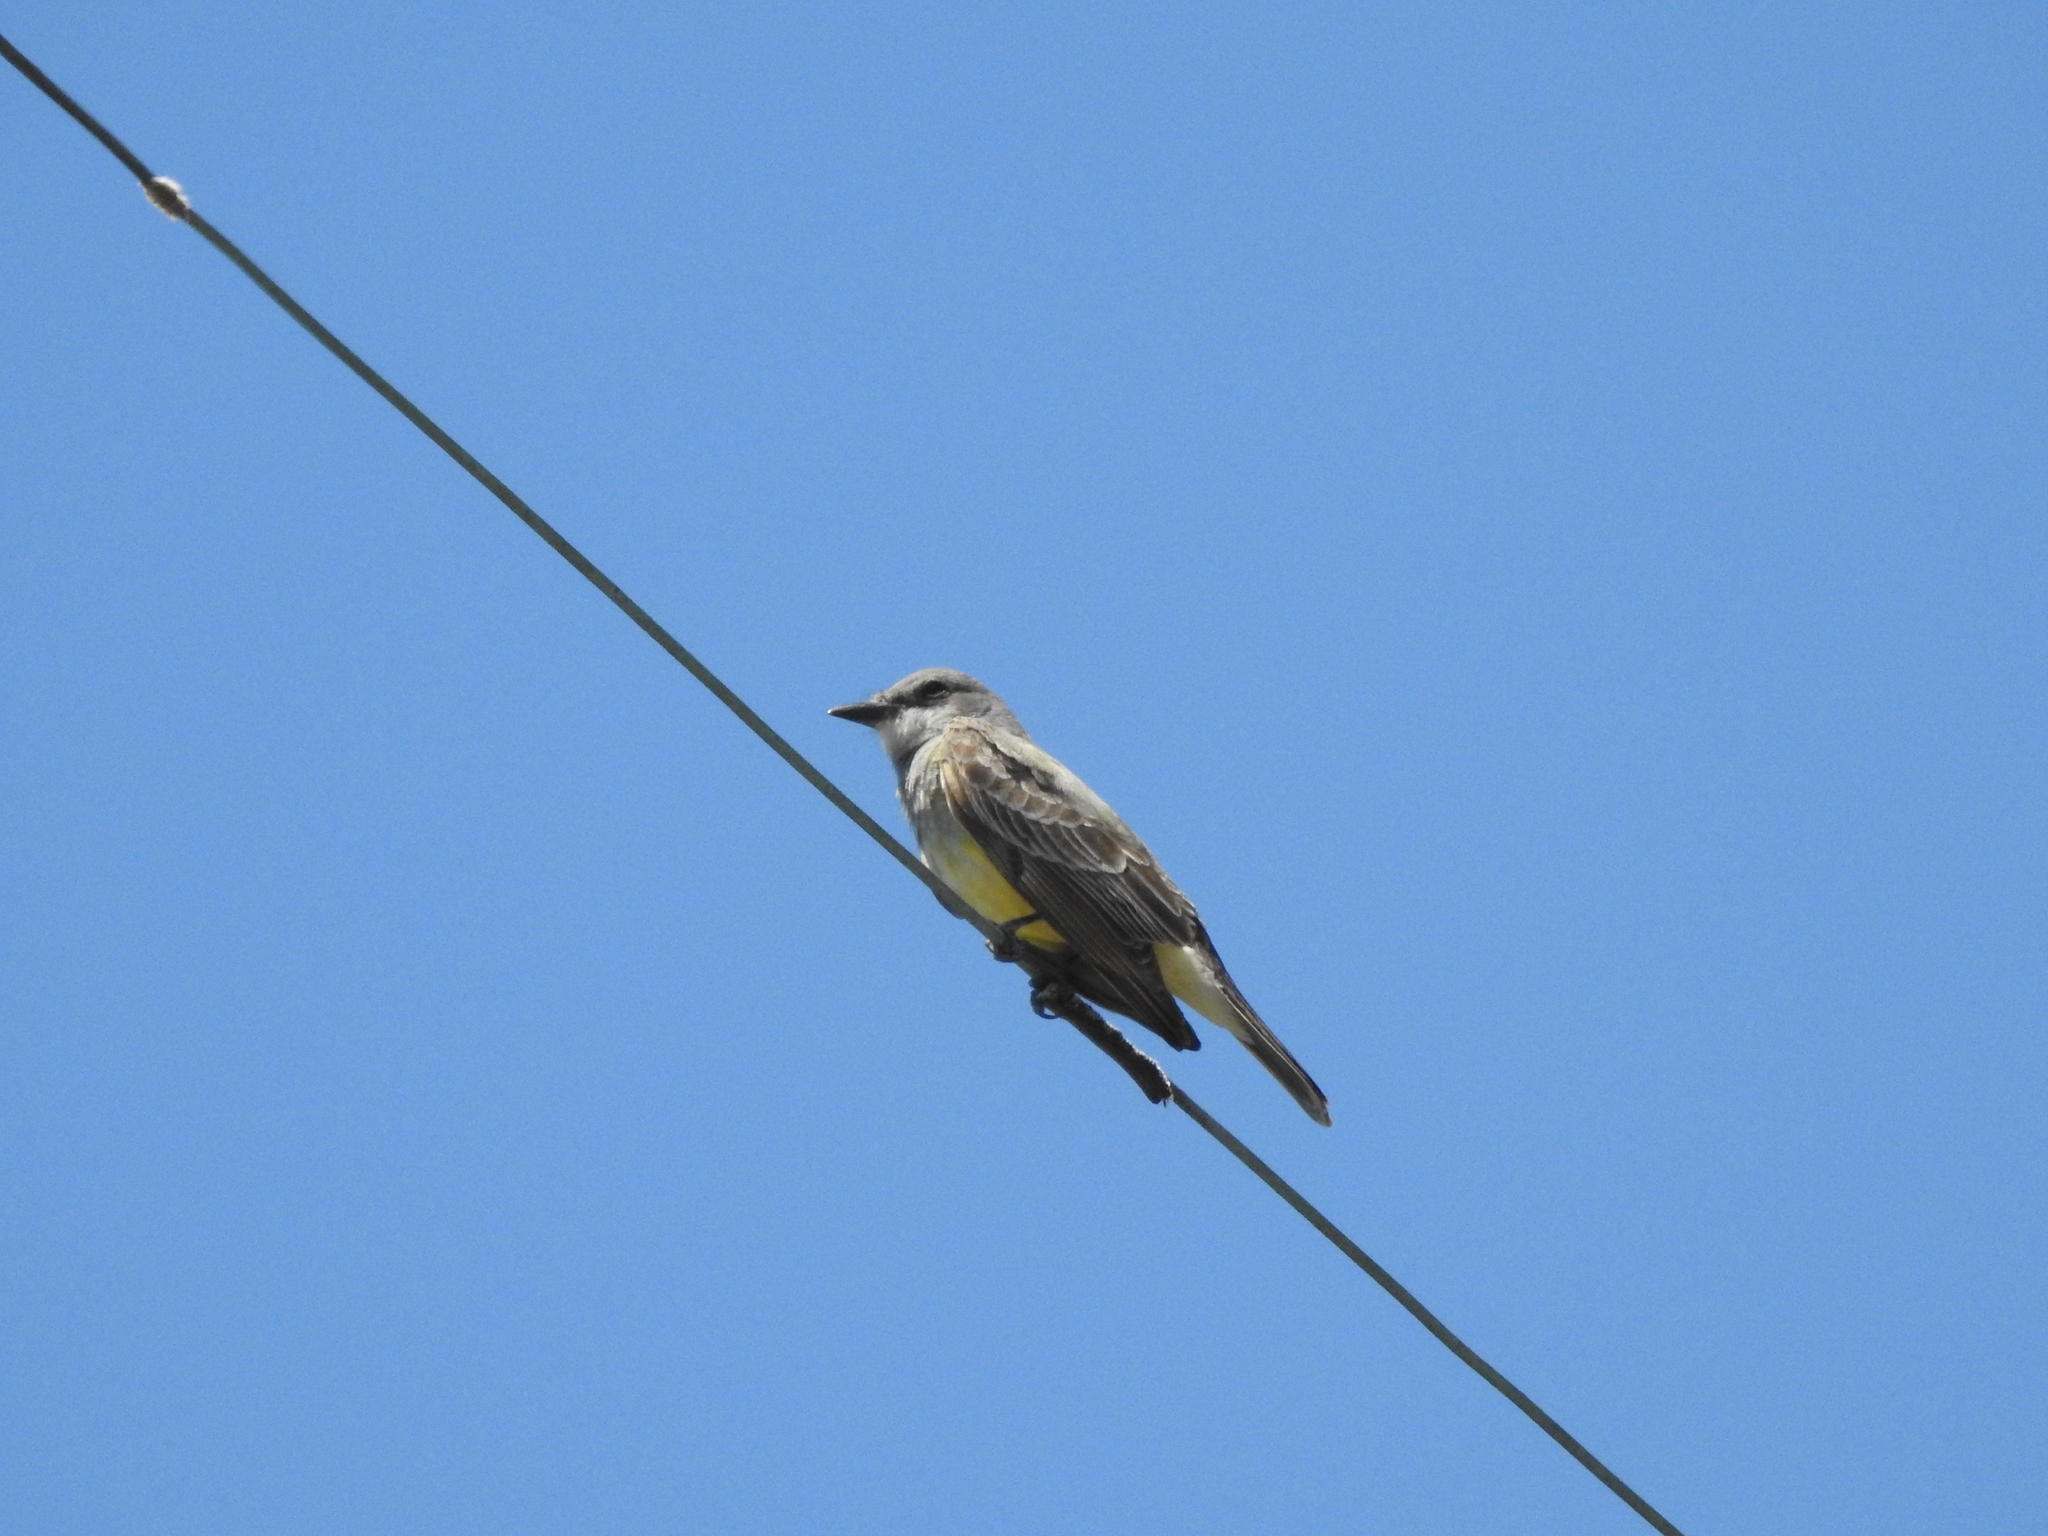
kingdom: Animalia
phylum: Chordata
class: Aves
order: Passeriformes
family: Tyrannidae
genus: Tyrannus
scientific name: Tyrannus vociferans
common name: Cassin's kingbird
